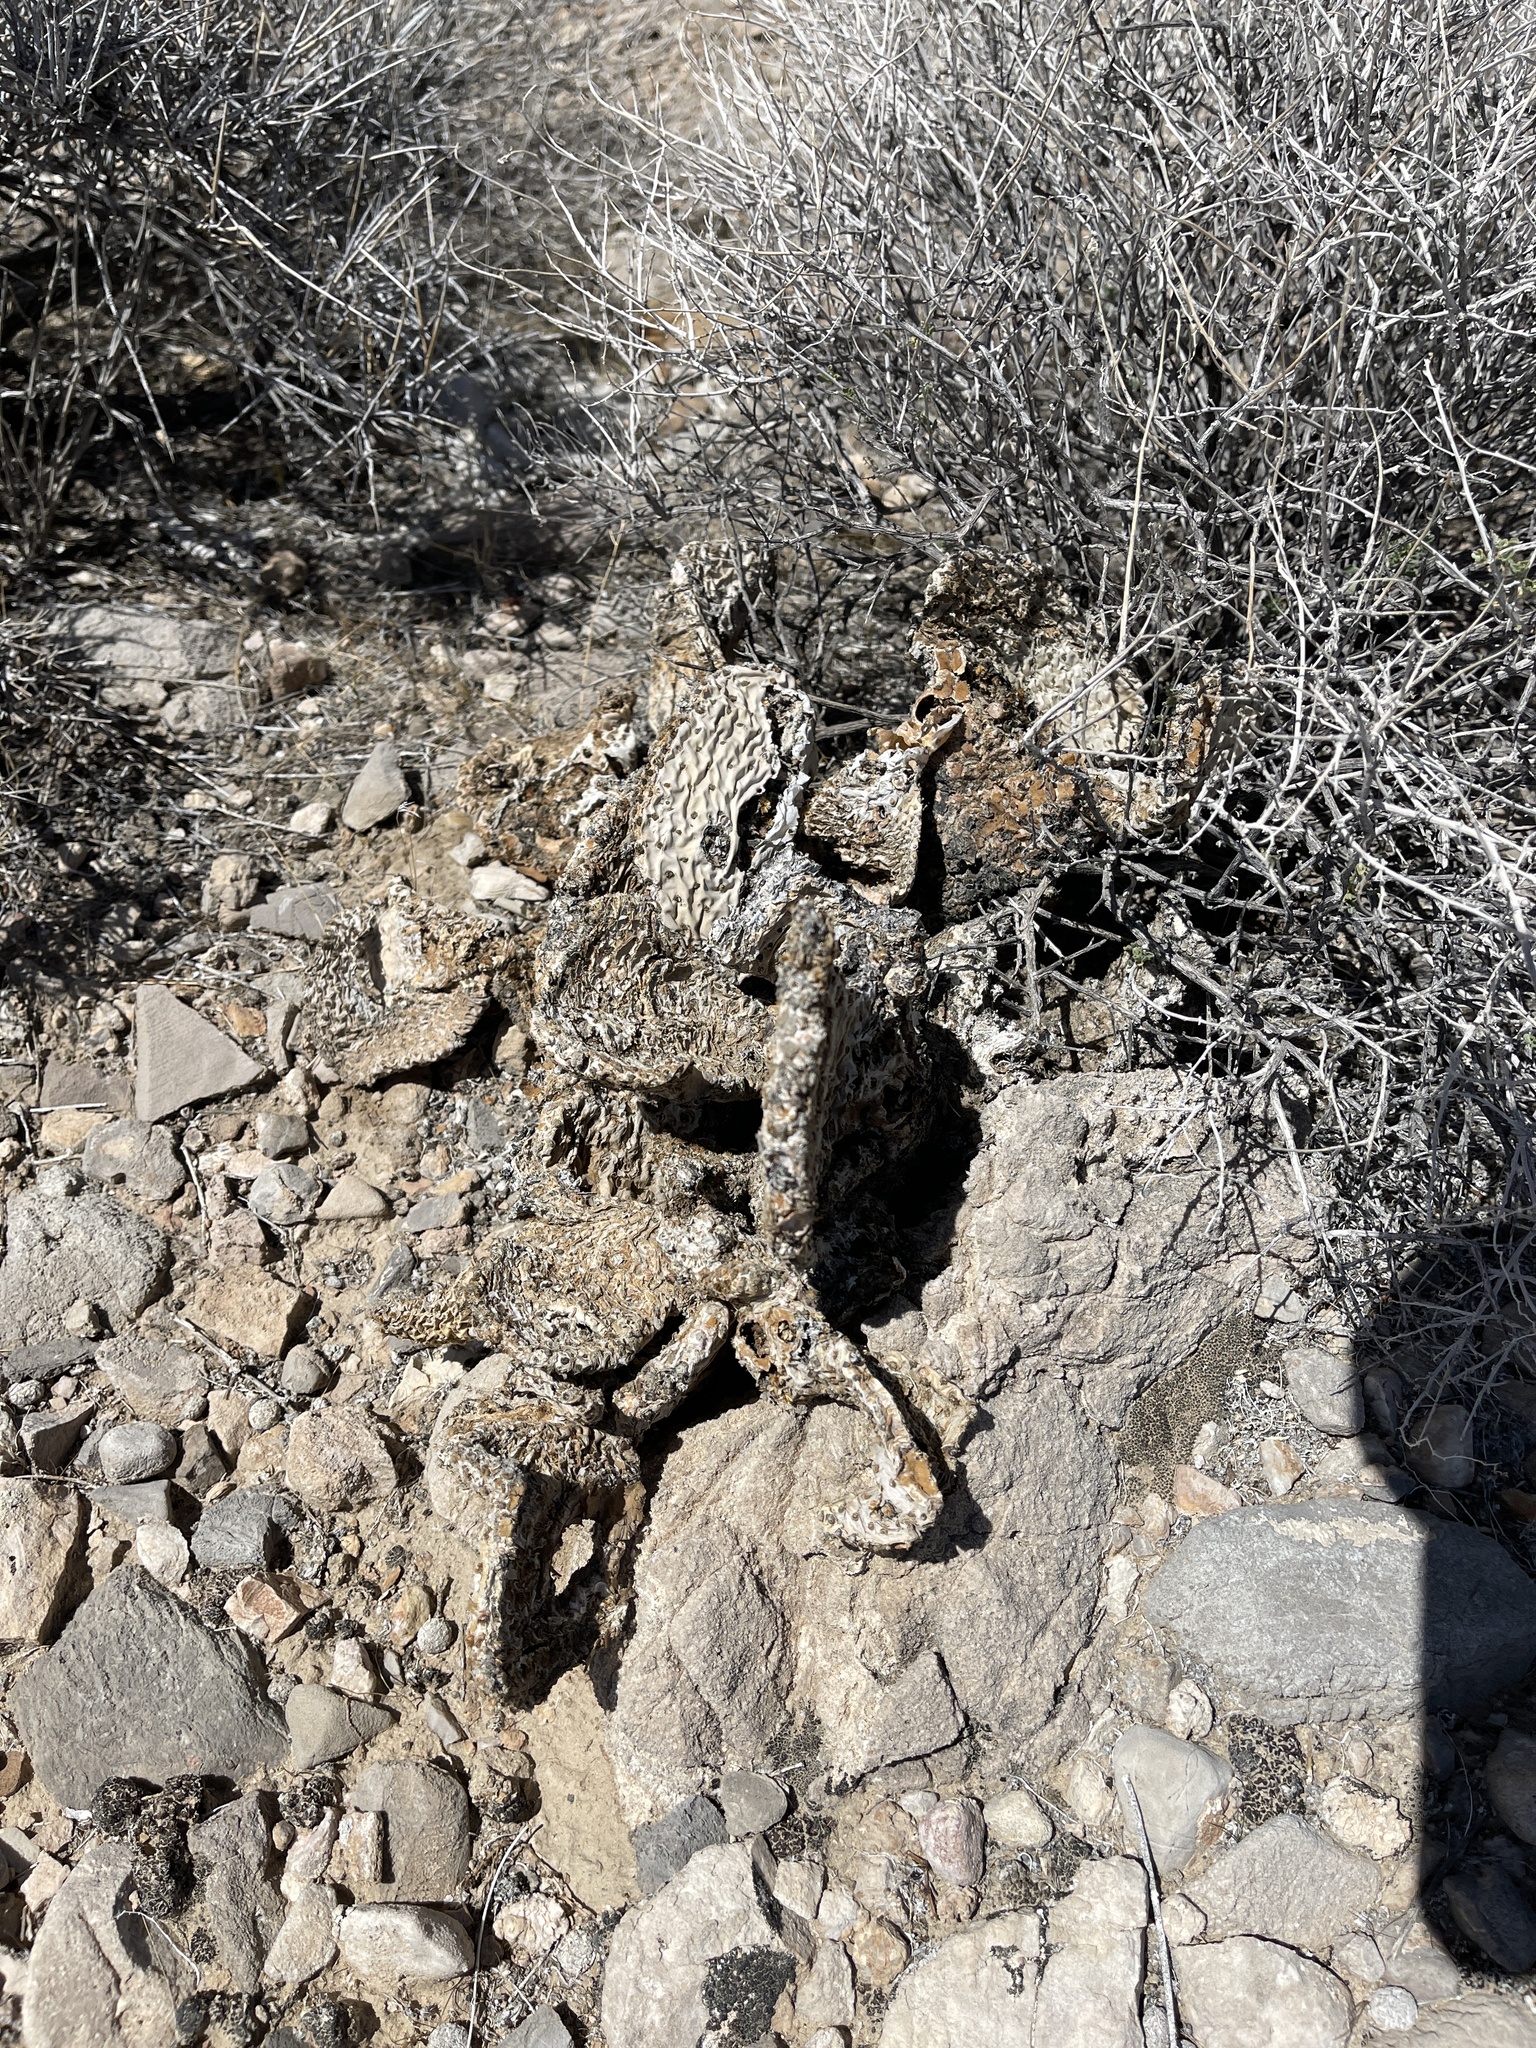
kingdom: Plantae
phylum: Tracheophyta
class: Magnoliopsida
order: Caryophyllales
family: Cactaceae
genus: Opuntia
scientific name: Opuntia basilaris
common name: Beavertail prickly-pear
